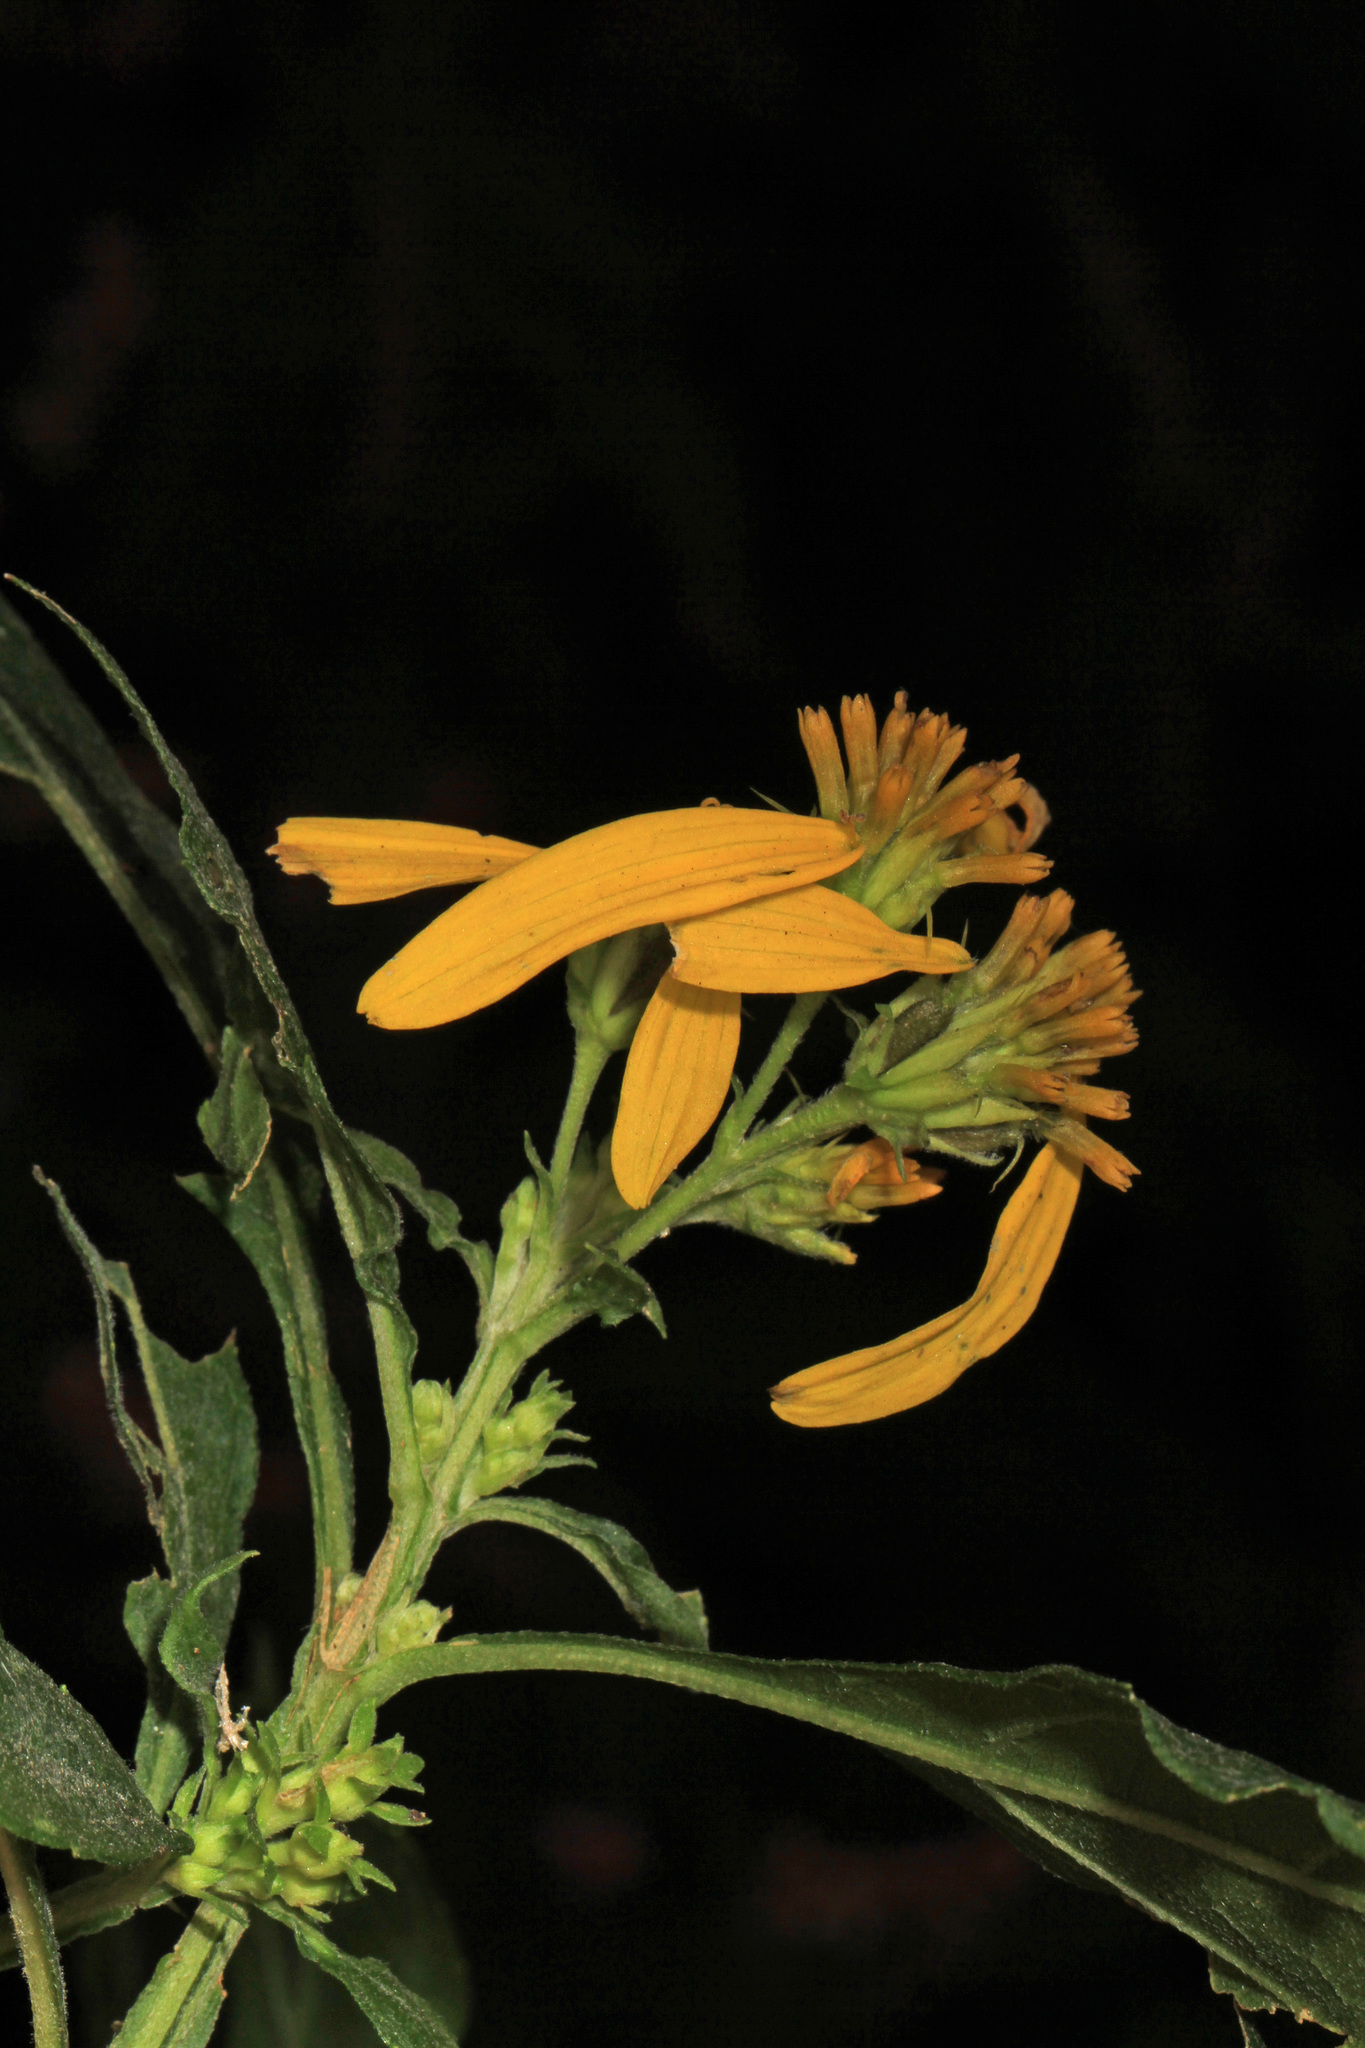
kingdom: Plantae
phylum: Tracheophyta
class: Magnoliopsida
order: Asterales
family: Asteraceae
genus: Verbesina
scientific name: Verbesina occidentalis
